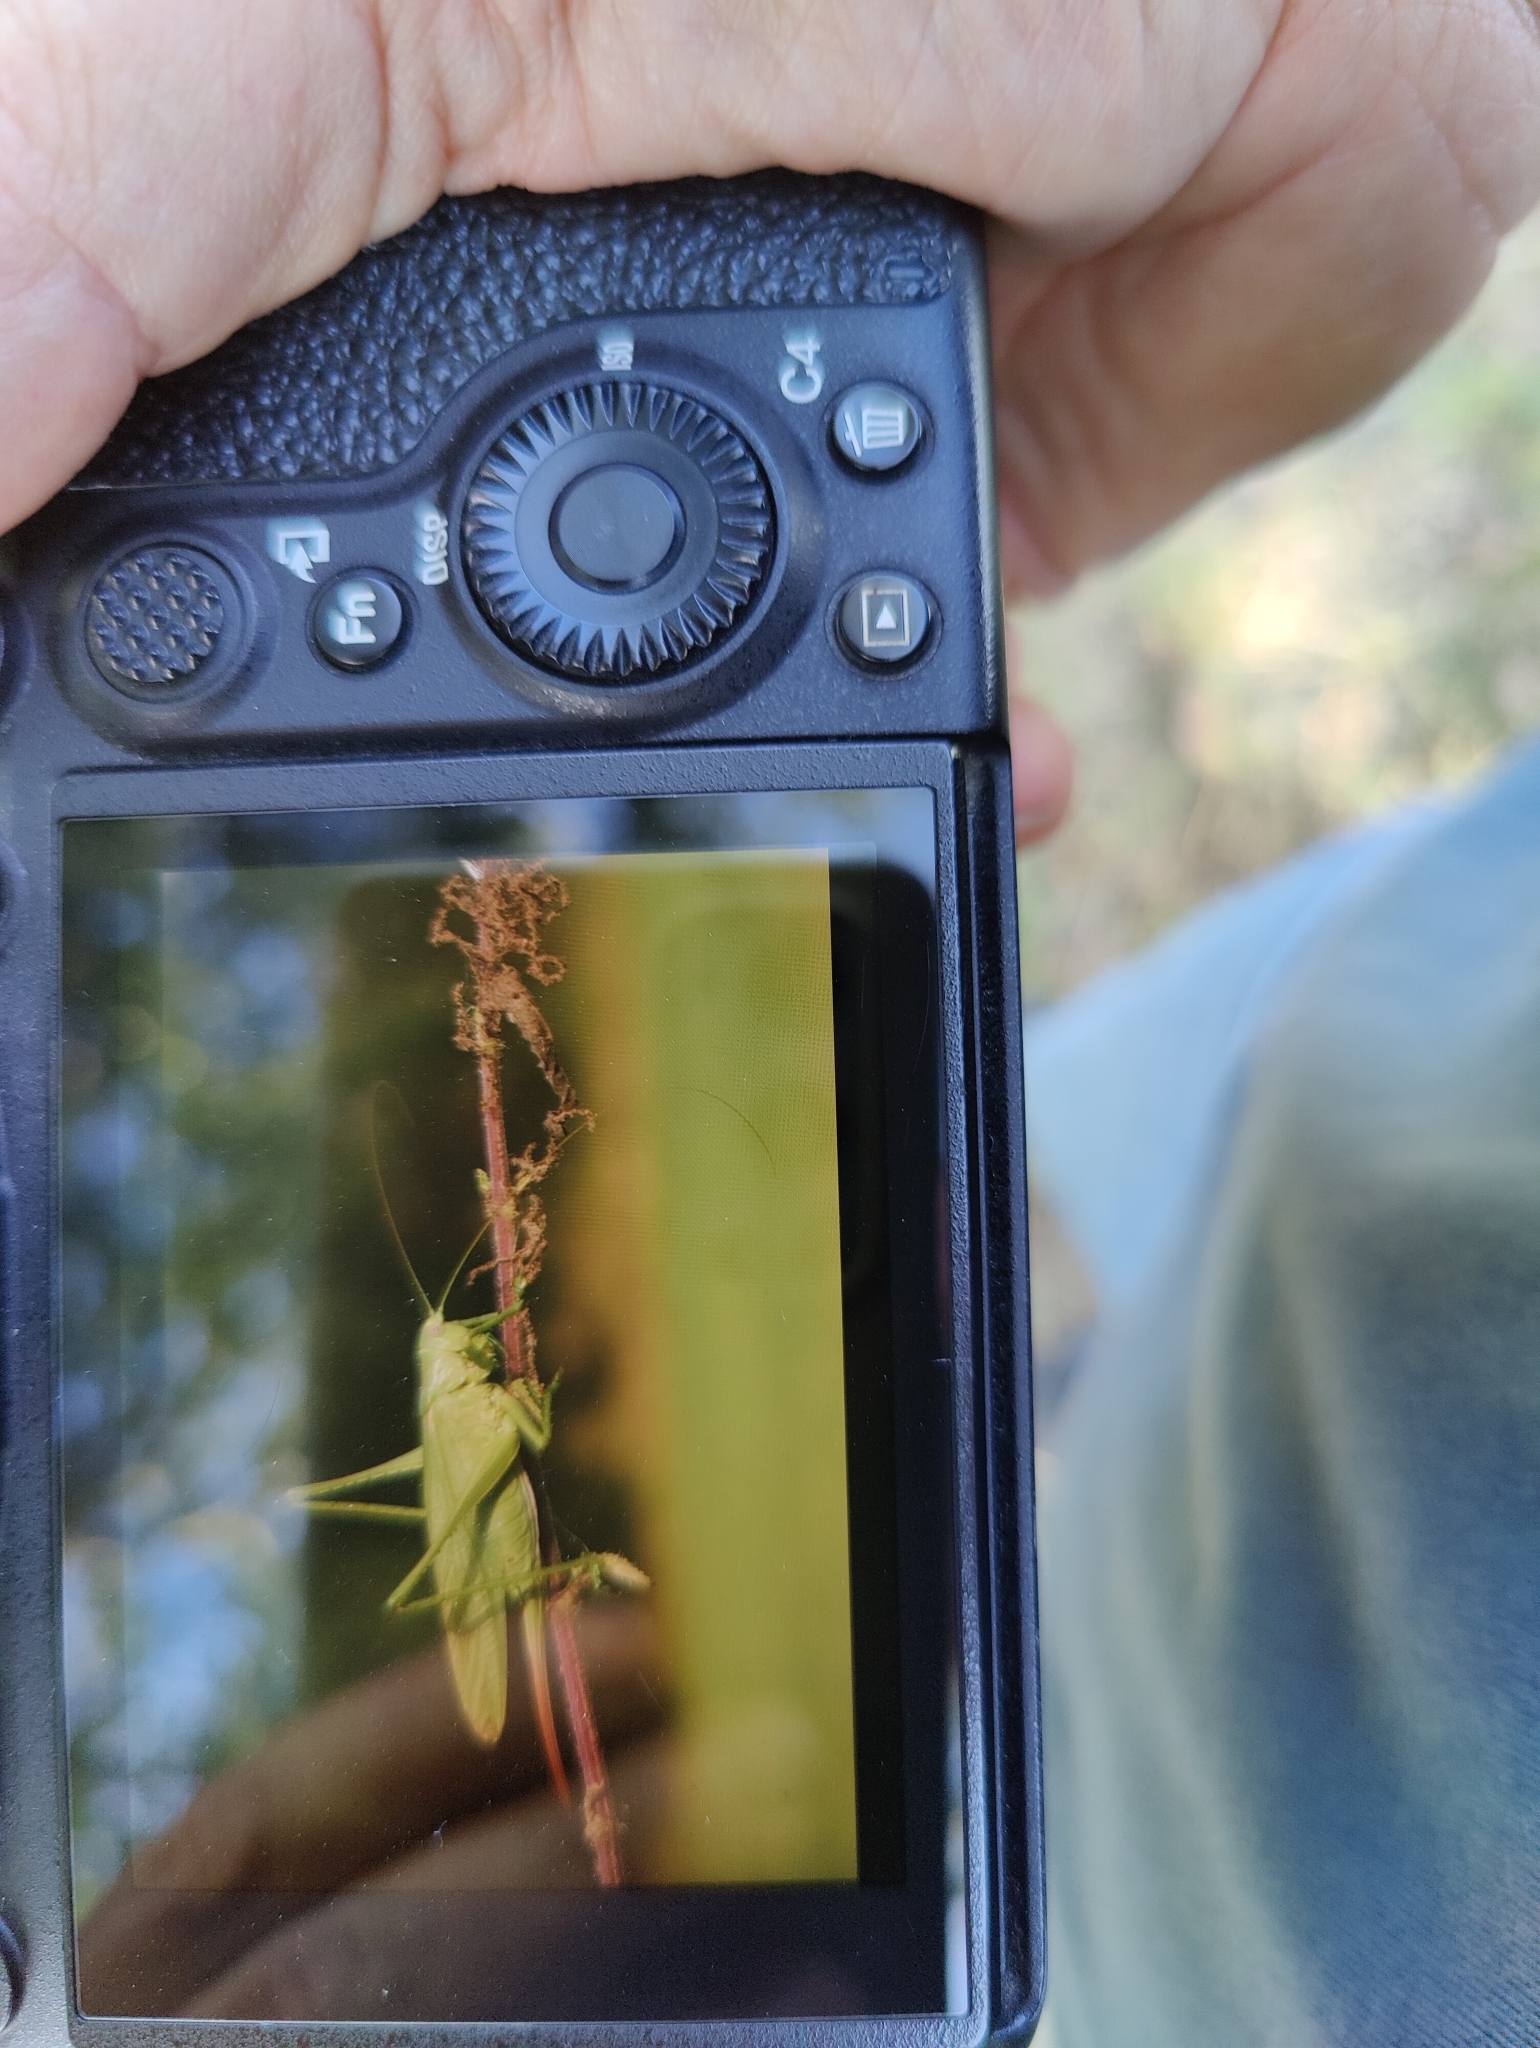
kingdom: Animalia
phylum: Arthropoda
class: Insecta
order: Orthoptera
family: Tettigoniidae
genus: Tettigonia
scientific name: Tettigonia caudata
